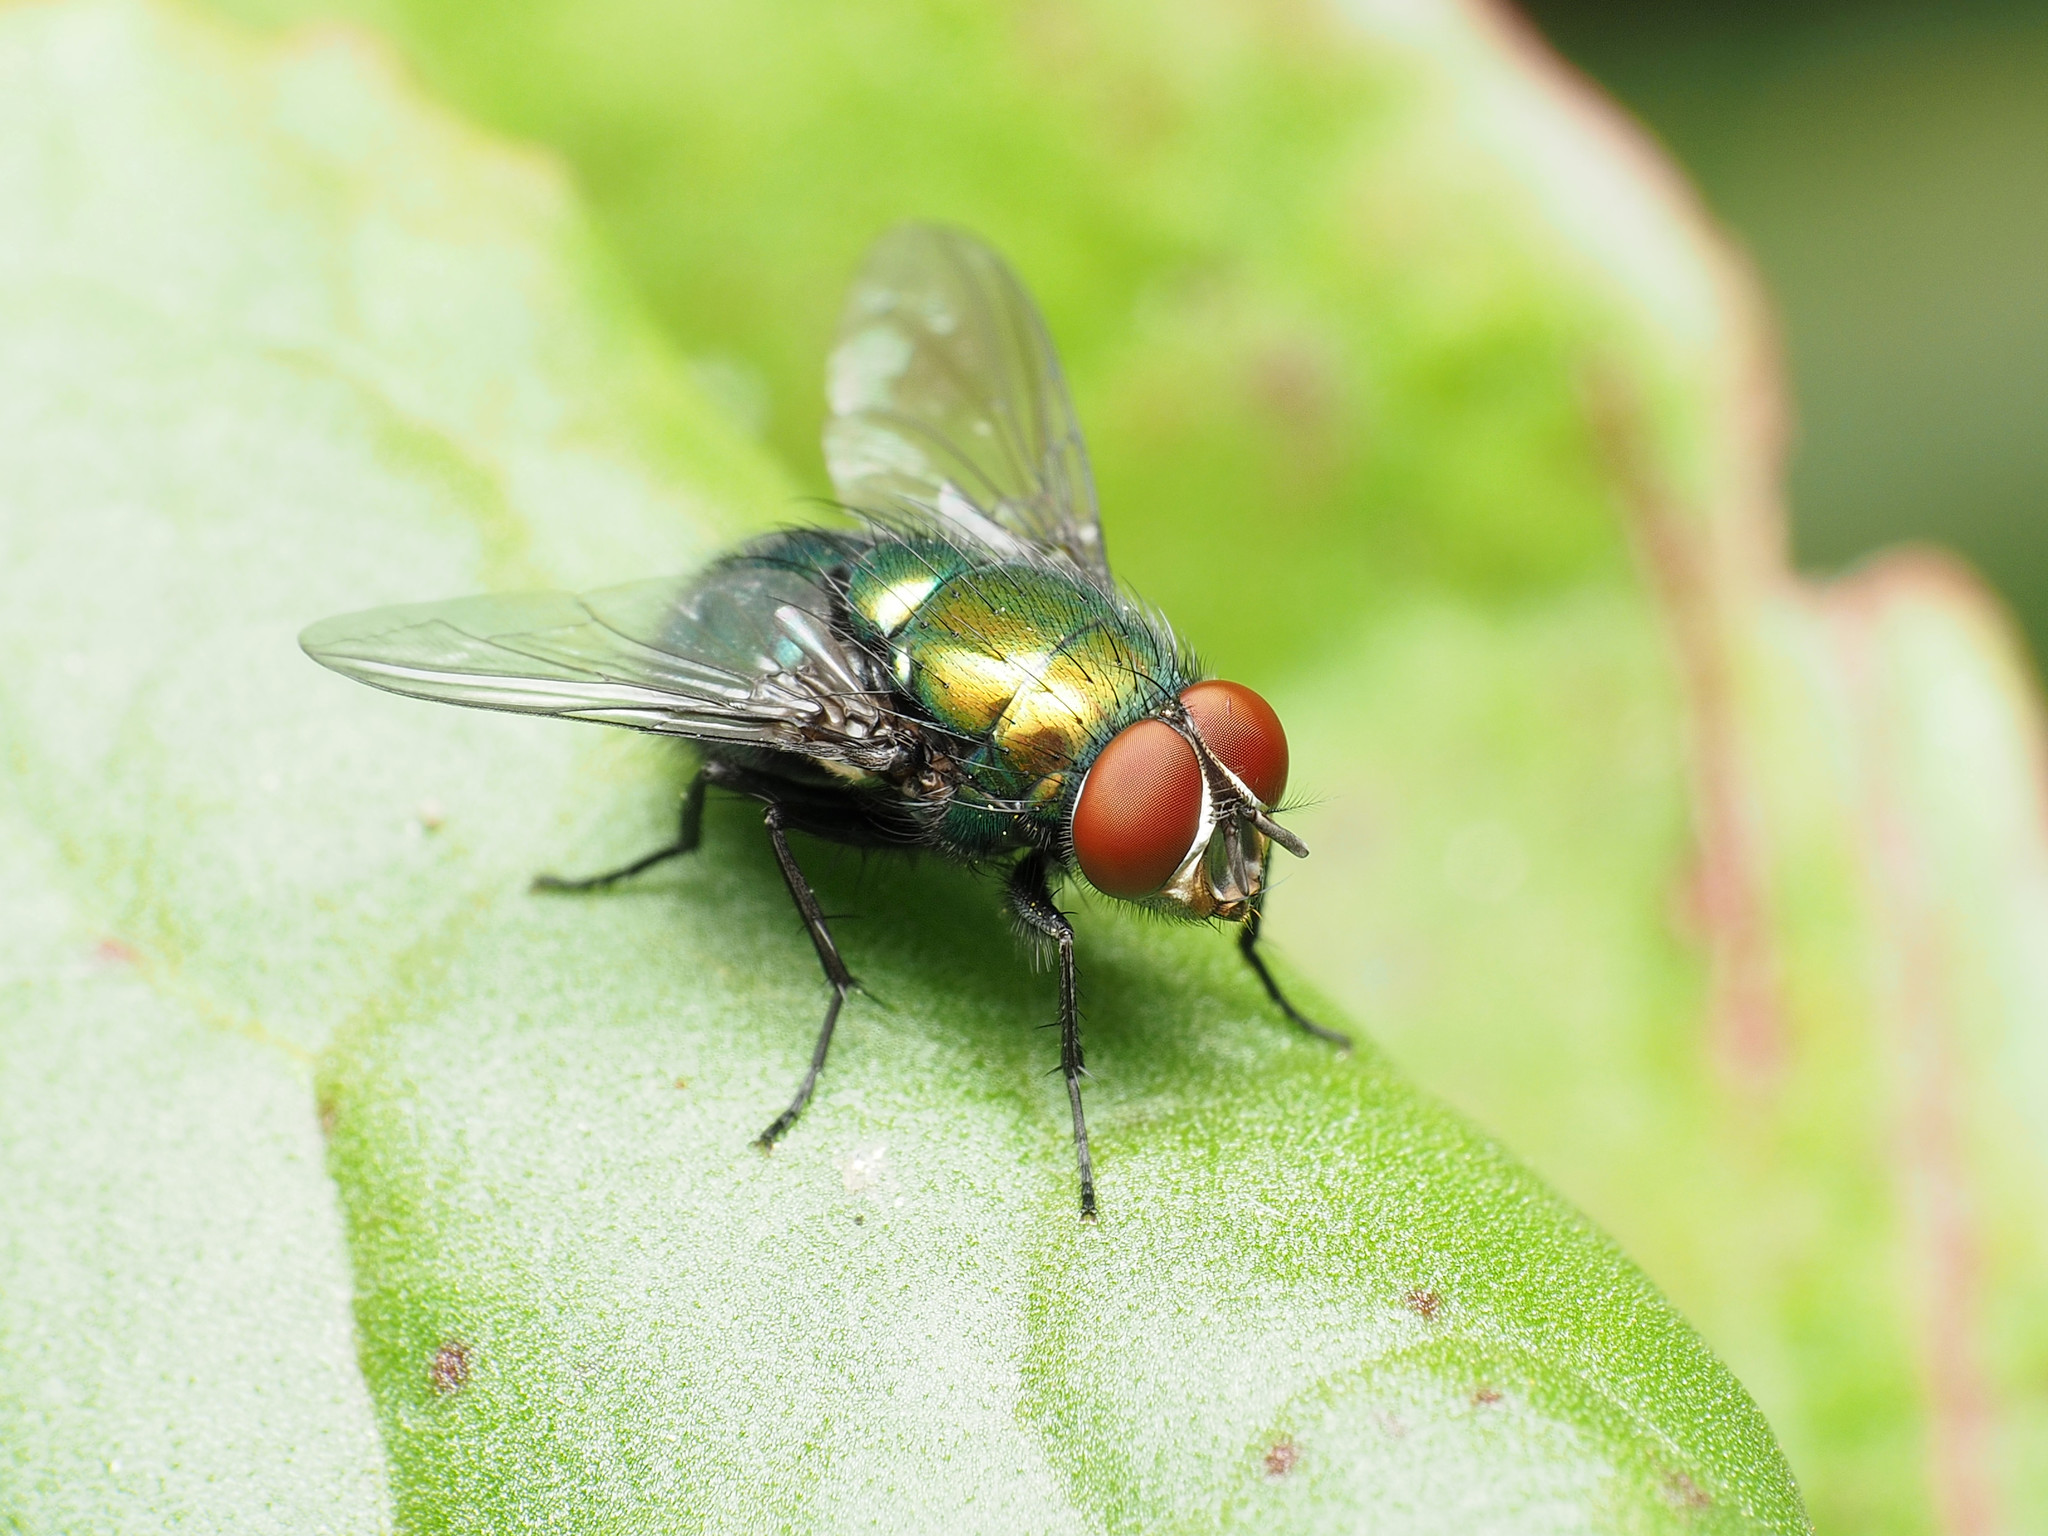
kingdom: Animalia
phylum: Arthropoda
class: Insecta
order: Diptera
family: Calliphoridae
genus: Lucilia
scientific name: Lucilia illustris
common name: Illustrious greenbottle
